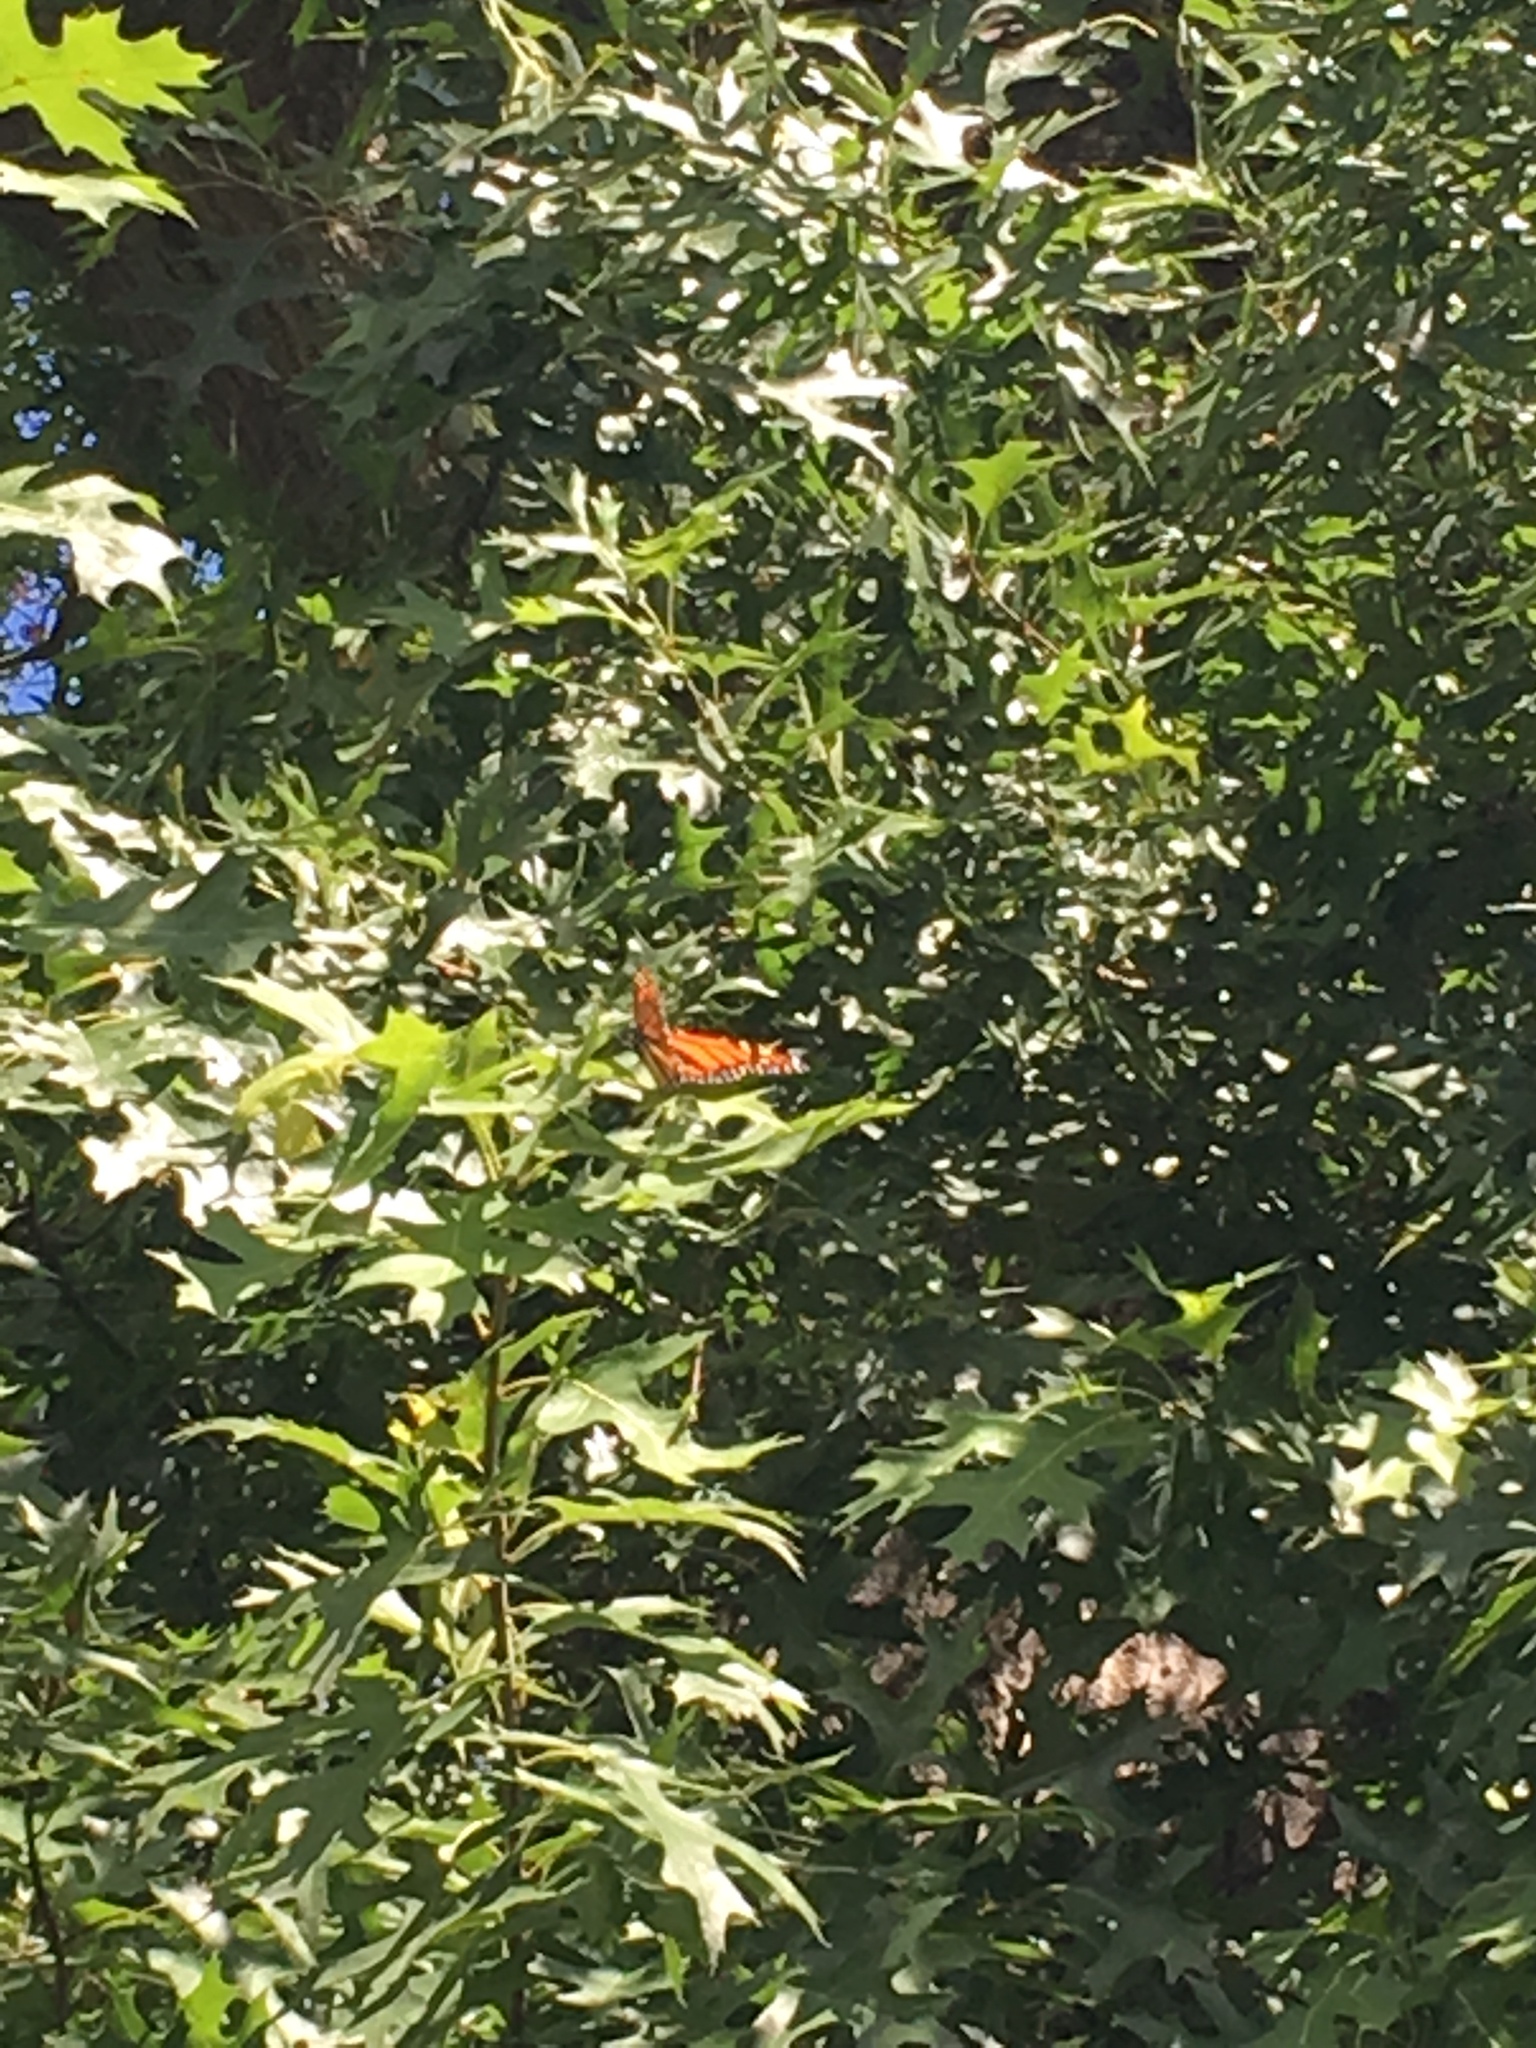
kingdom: Animalia
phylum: Arthropoda
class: Insecta
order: Lepidoptera
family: Nymphalidae
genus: Danaus
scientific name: Danaus plexippus
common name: Monarch
